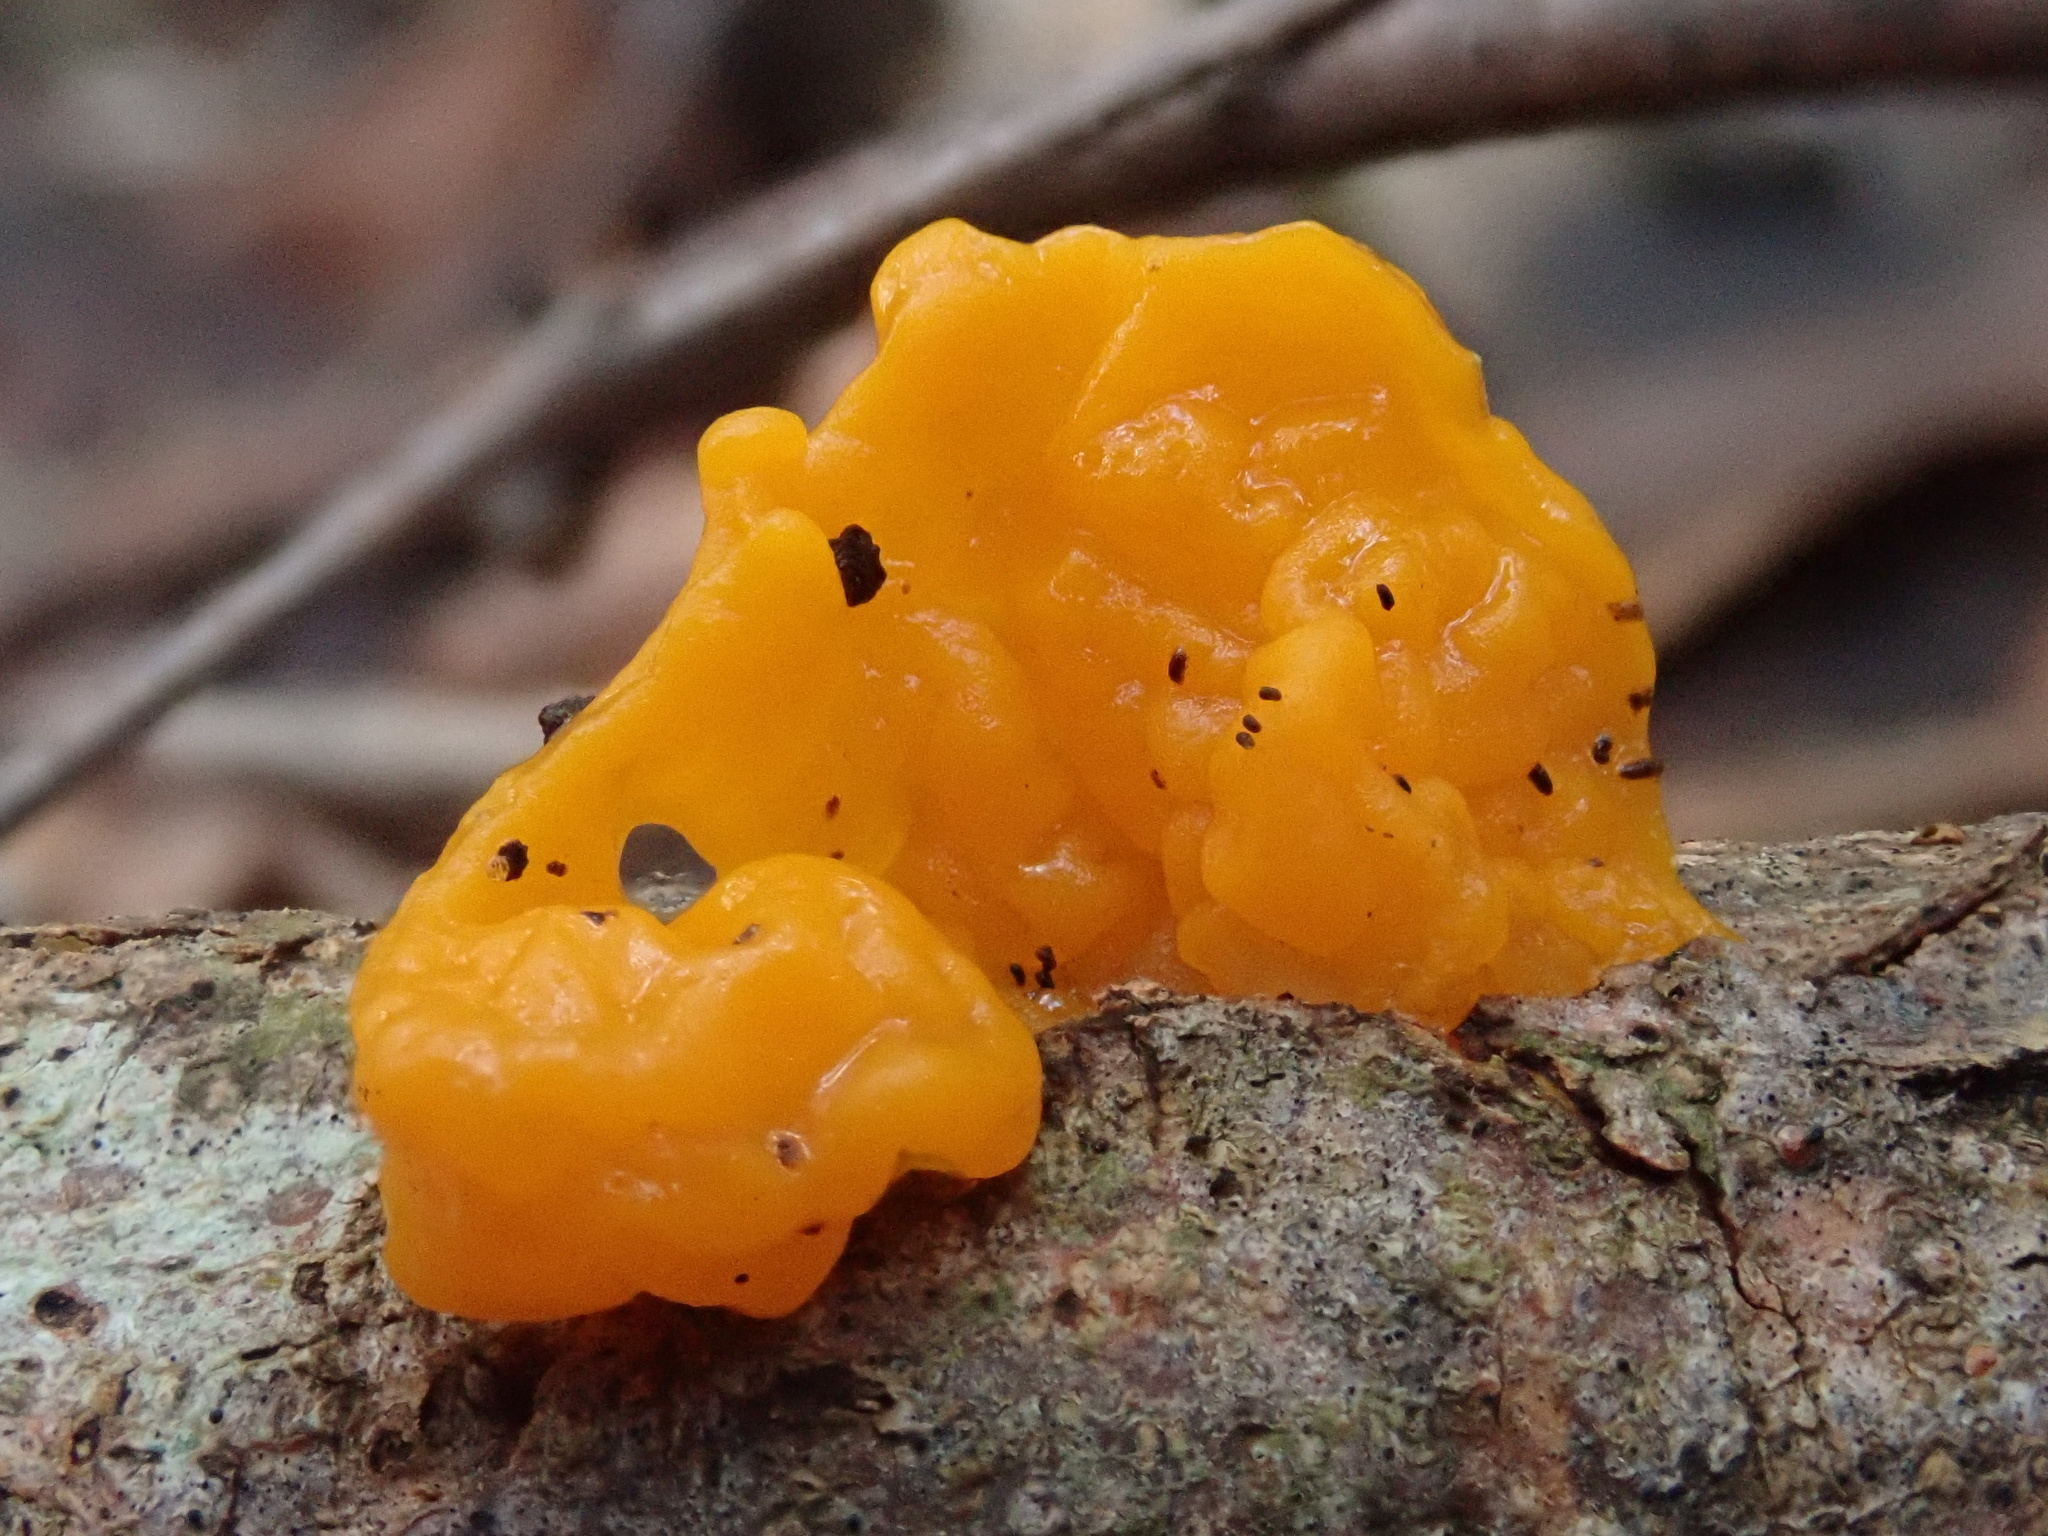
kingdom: Fungi
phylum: Basidiomycota
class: Tremellomycetes
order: Tremellales
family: Tremellaceae
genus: Tremella
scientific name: Tremella mesenterica
